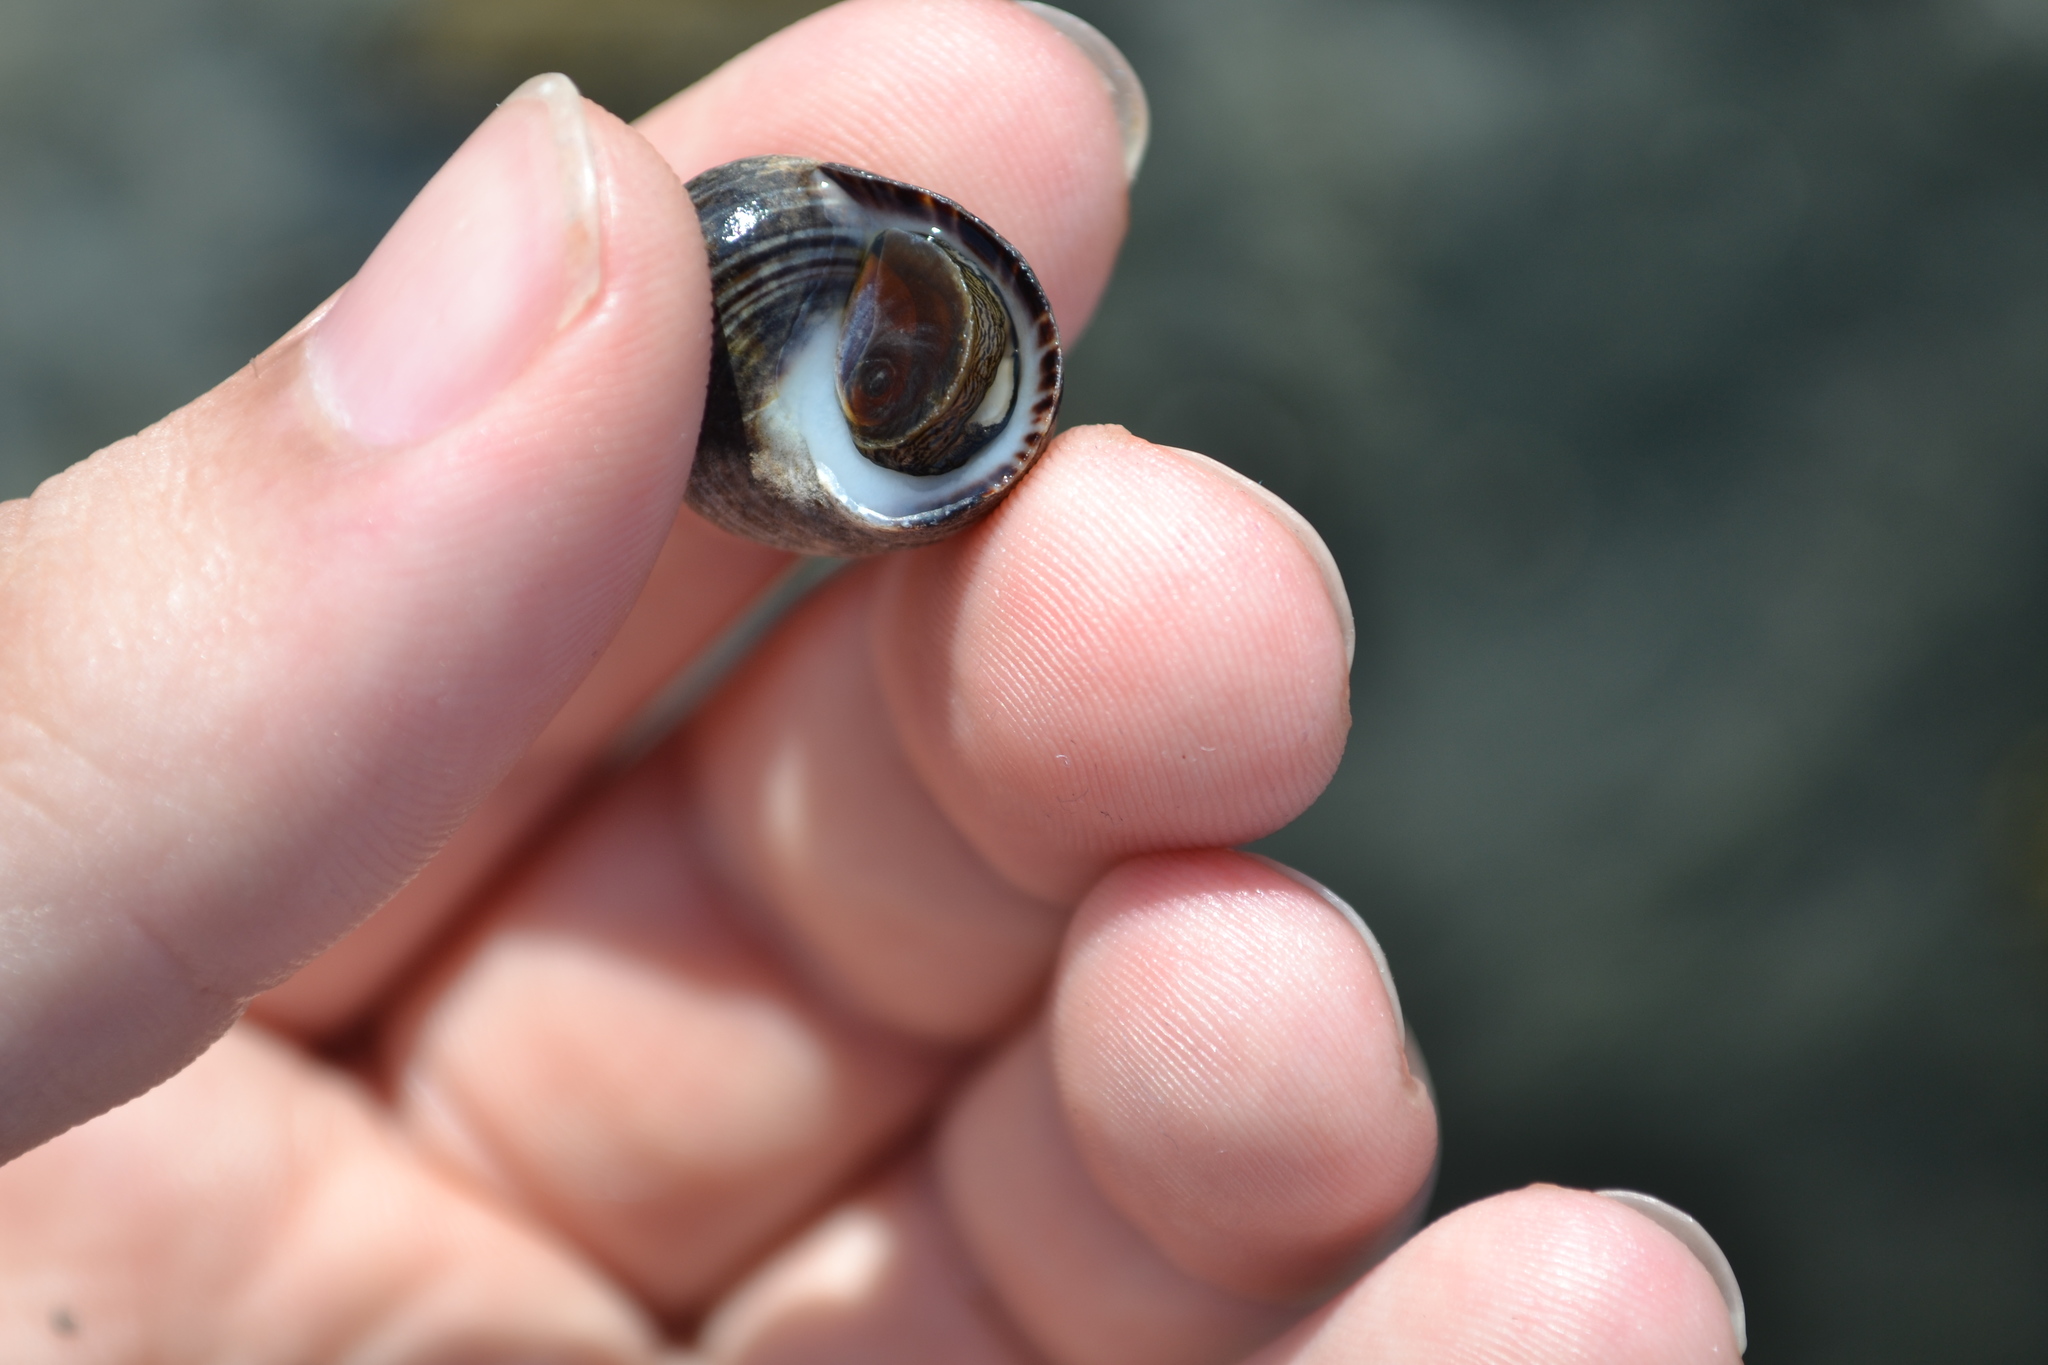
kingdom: Animalia
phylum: Mollusca
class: Gastropoda
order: Littorinimorpha
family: Littorinidae
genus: Littorina
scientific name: Littorina littorea
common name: Common periwinkle
